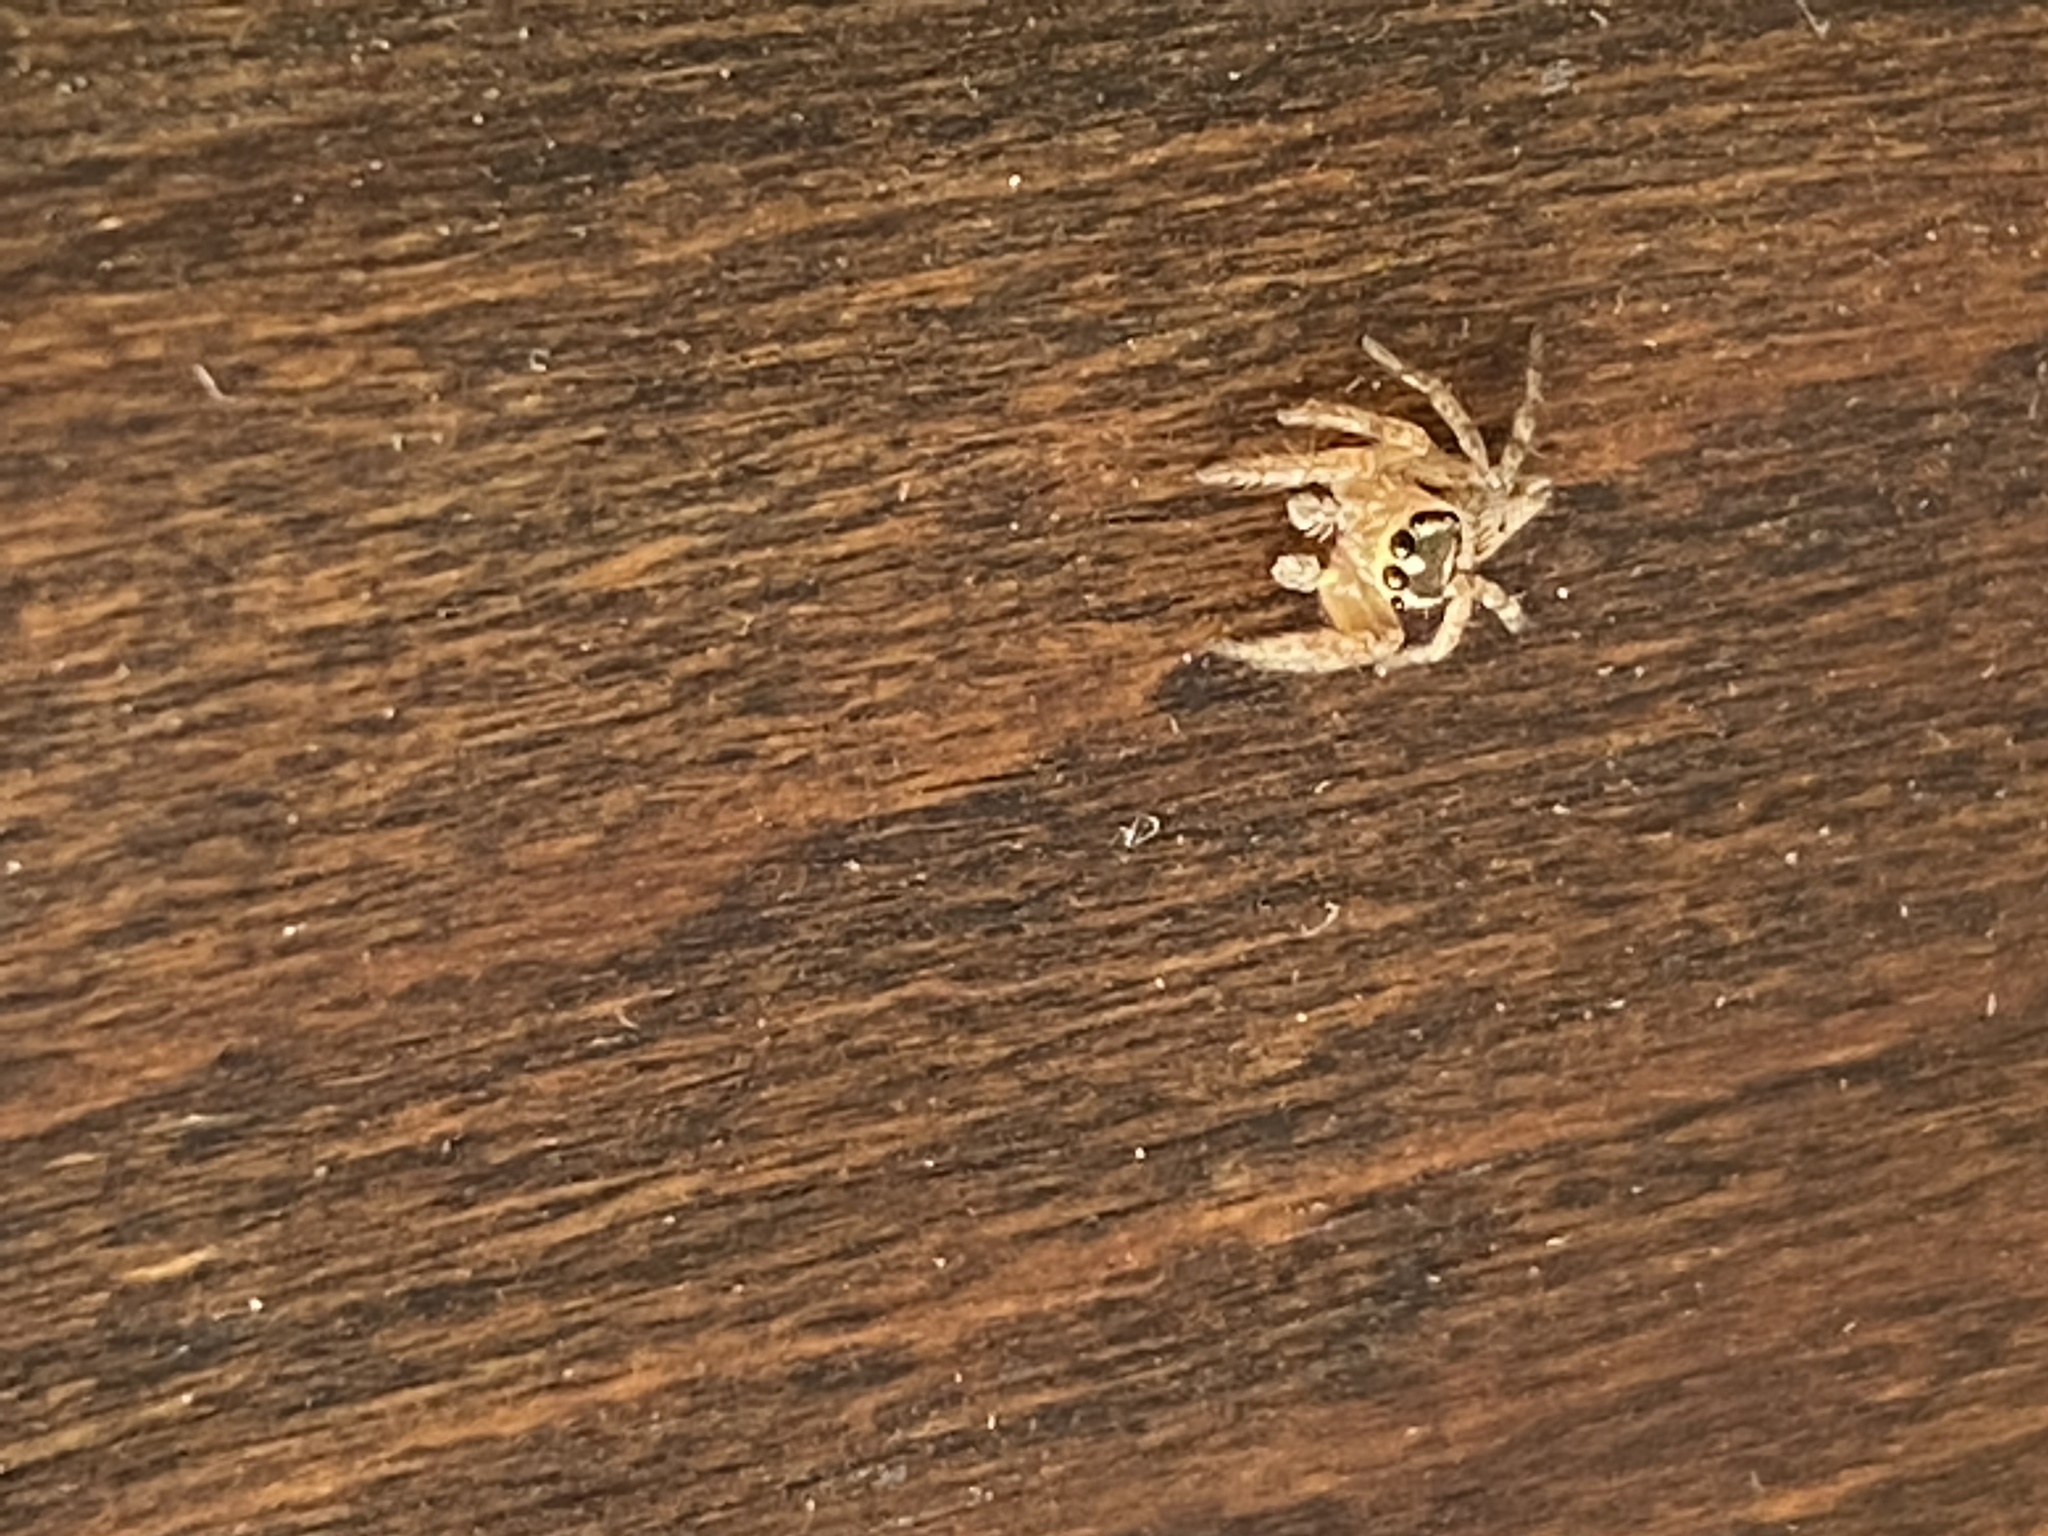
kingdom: Animalia
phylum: Arthropoda
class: Arachnida
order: Araneae
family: Salticidae
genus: Evarcha
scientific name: Evarcha jucunda
